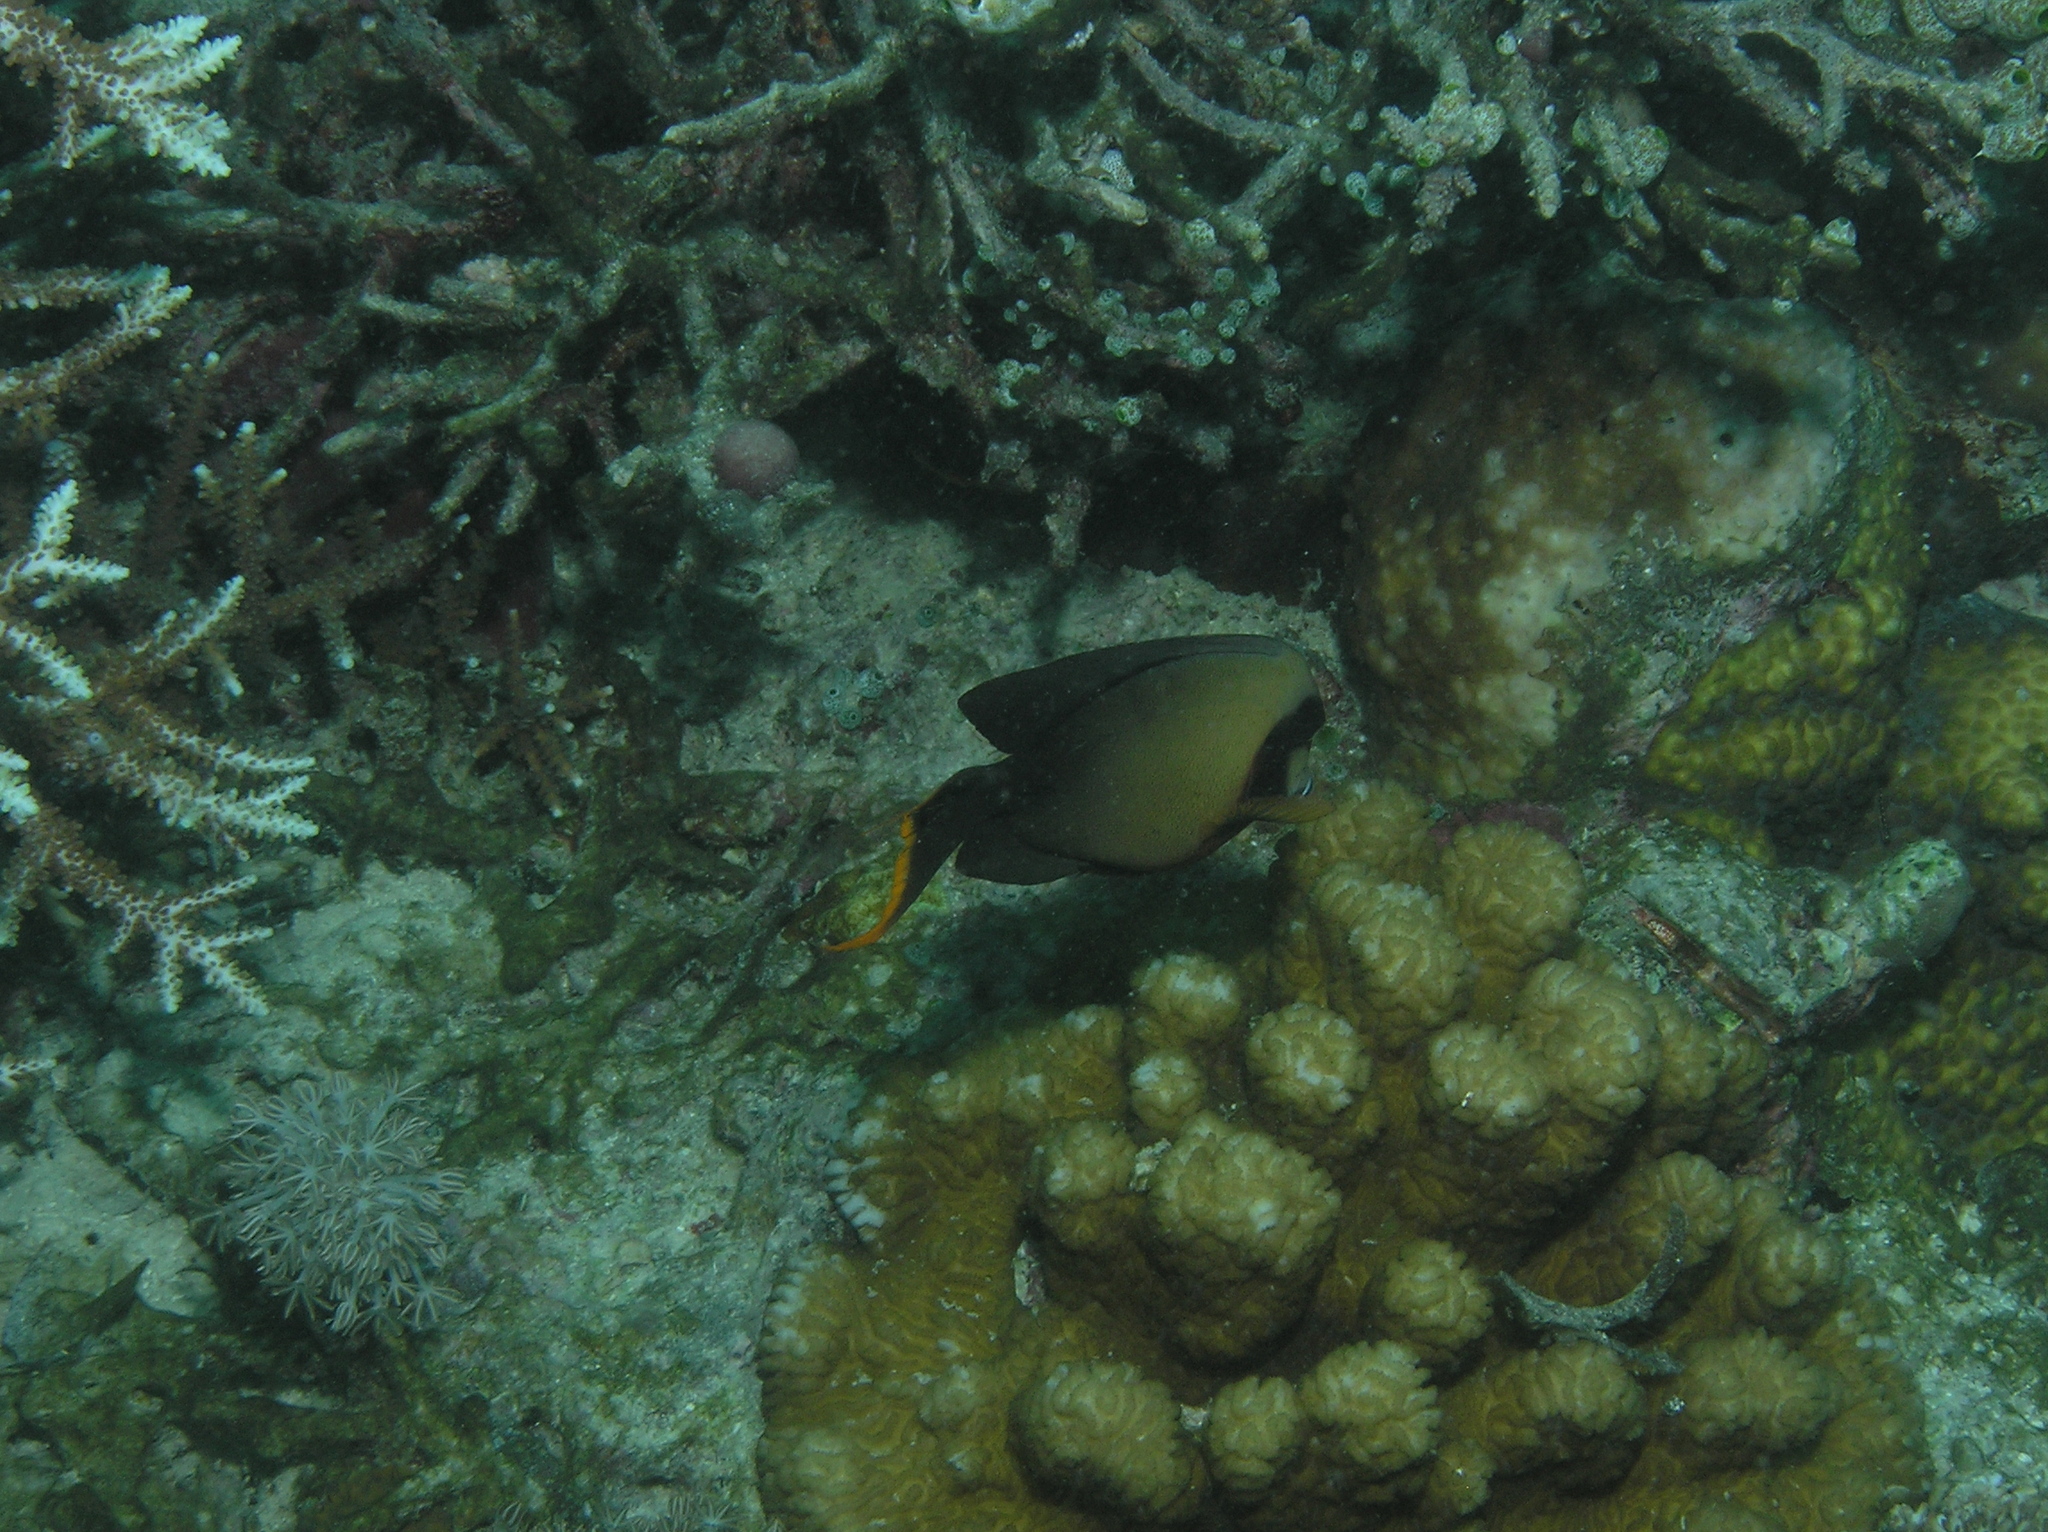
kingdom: Animalia
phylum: Chordata
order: Perciformes
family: Acanthuridae
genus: Acanthurus
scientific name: Acanthurus pyroferus
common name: Chocolate surgeonfish
